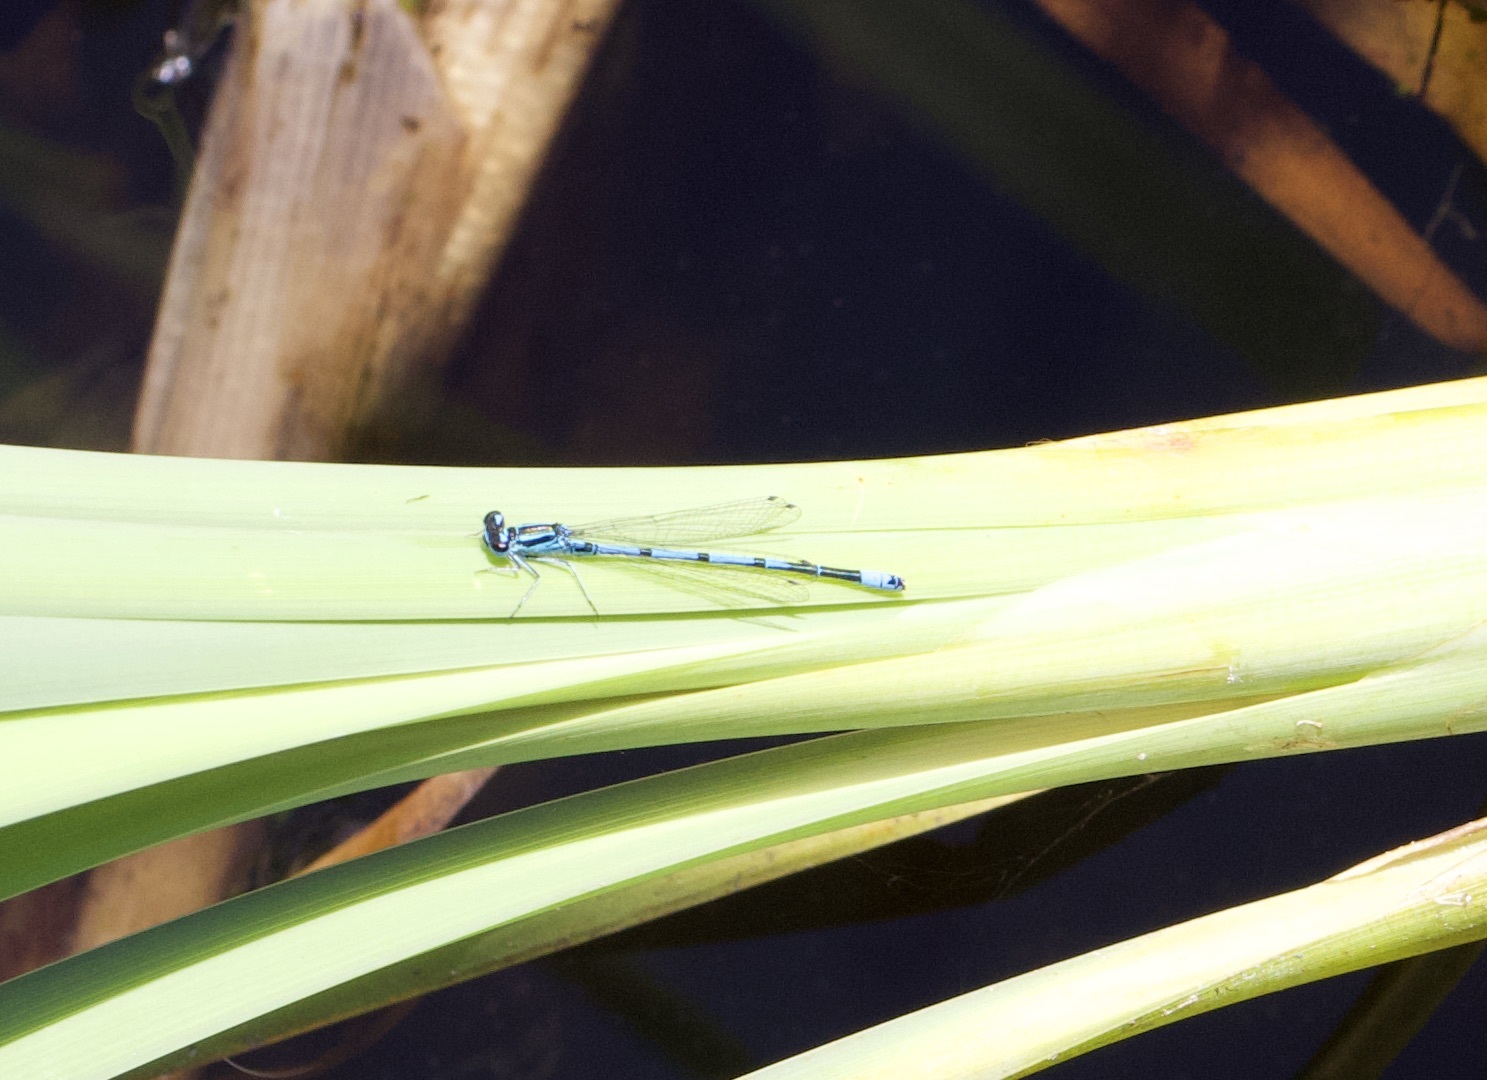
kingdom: Animalia
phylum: Arthropoda
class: Insecta
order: Odonata
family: Coenagrionidae
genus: Coenagrion
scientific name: Coenagrion puella
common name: Azure damselfly
